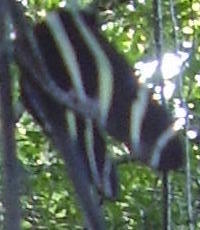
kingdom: Animalia
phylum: Arthropoda
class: Insecta
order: Lepidoptera
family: Nymphalidae
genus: Heliconius
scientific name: Heliconius charithonia
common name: Zebra long wing
